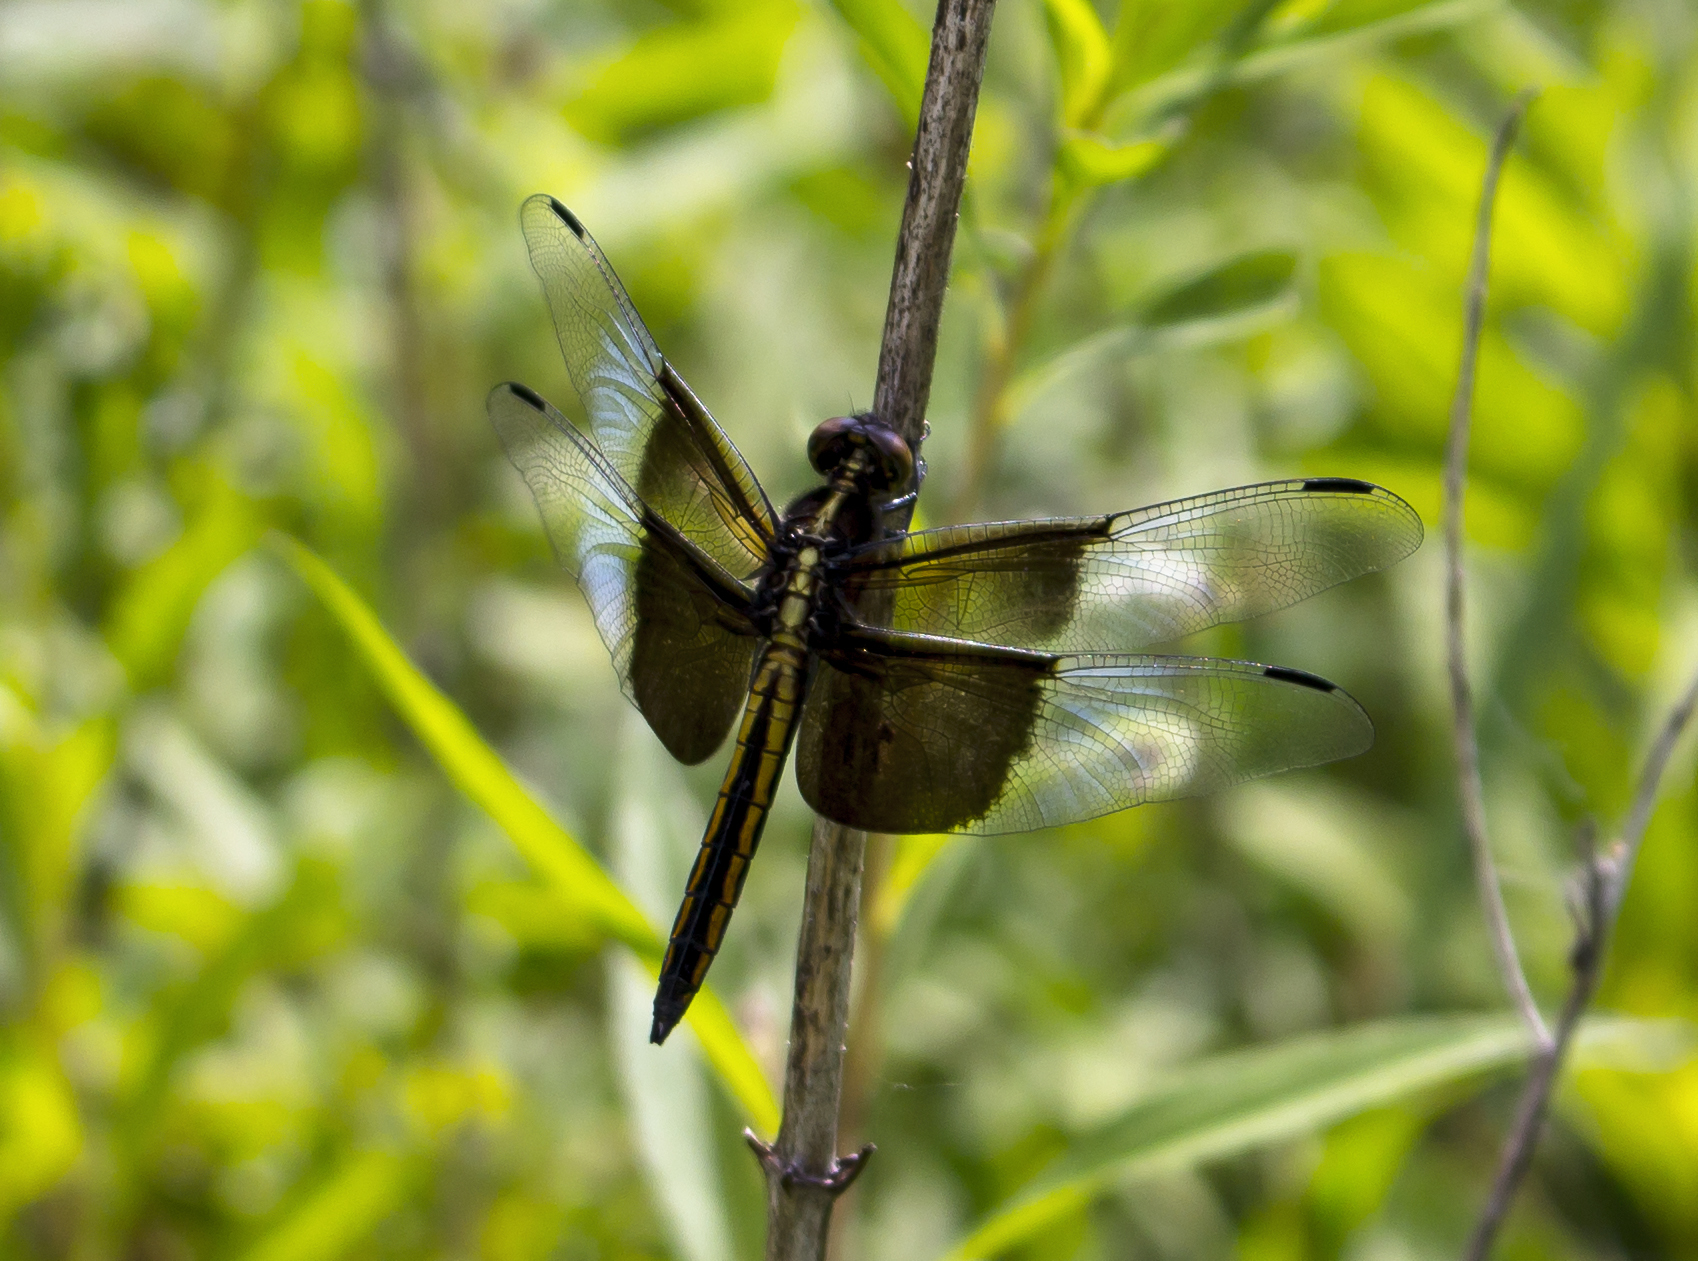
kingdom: Animalia
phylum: Arthropoda
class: Insecta
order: Odonata
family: Libellulidae
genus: Libellula
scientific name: Libellula luctuosa
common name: Widow skimmer
